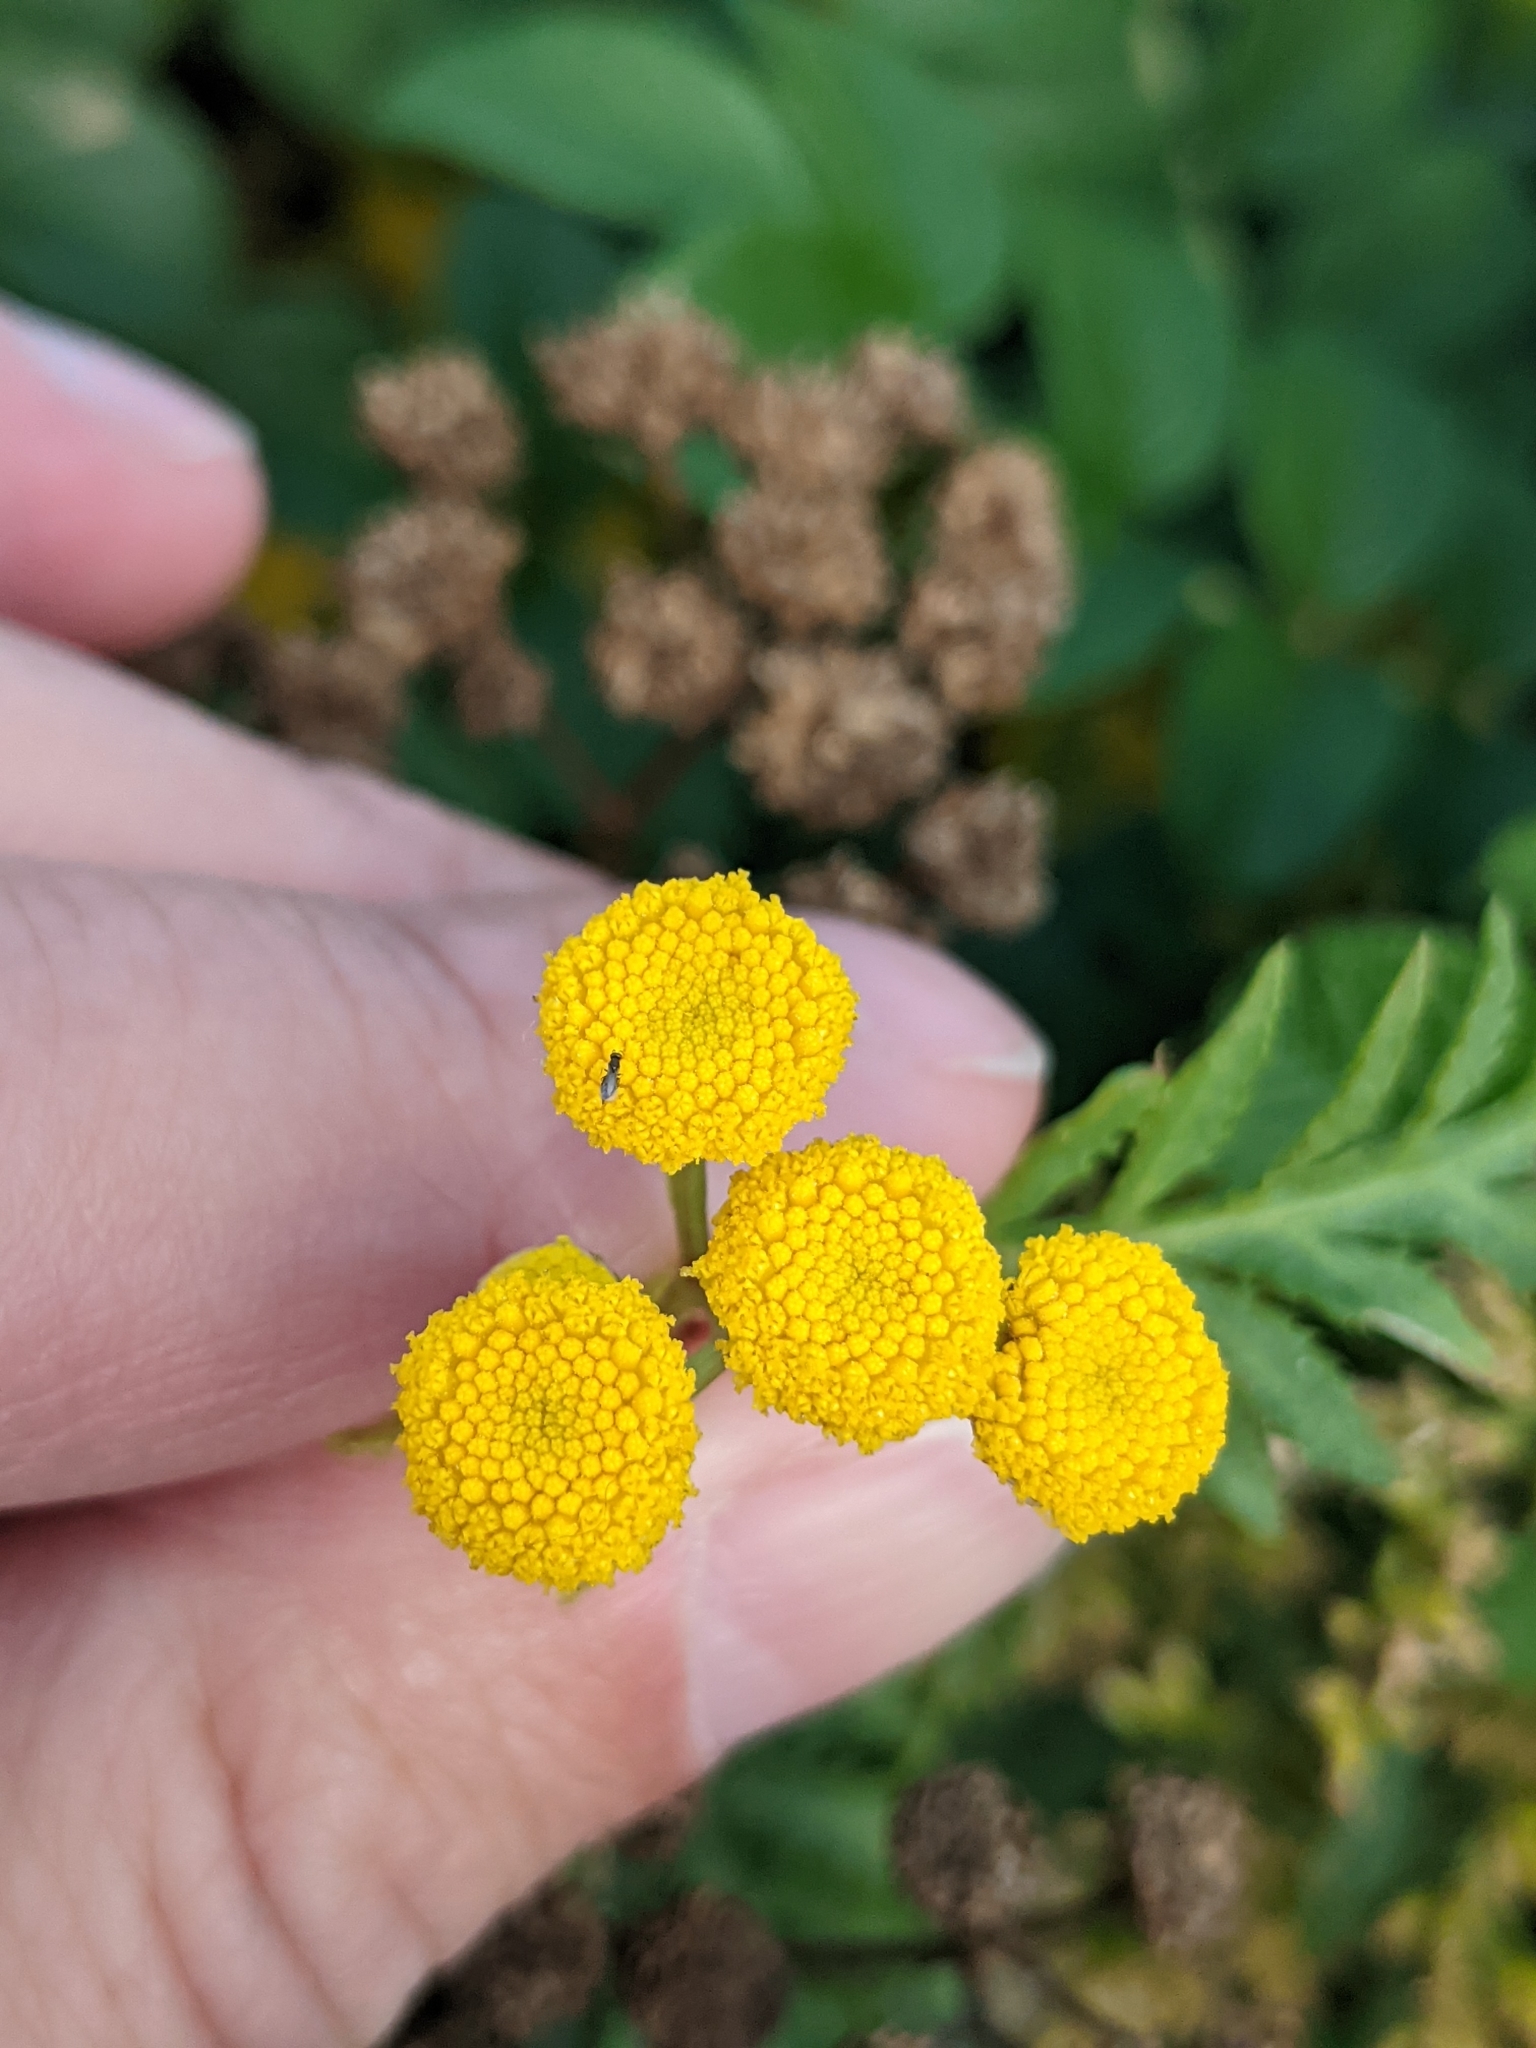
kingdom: Plantae
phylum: Tracheophyta
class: Magnoliopsida
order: Asterales
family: Asteraceae
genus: Tanacetum
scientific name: Tanacetum vulgare
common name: Common tansy
